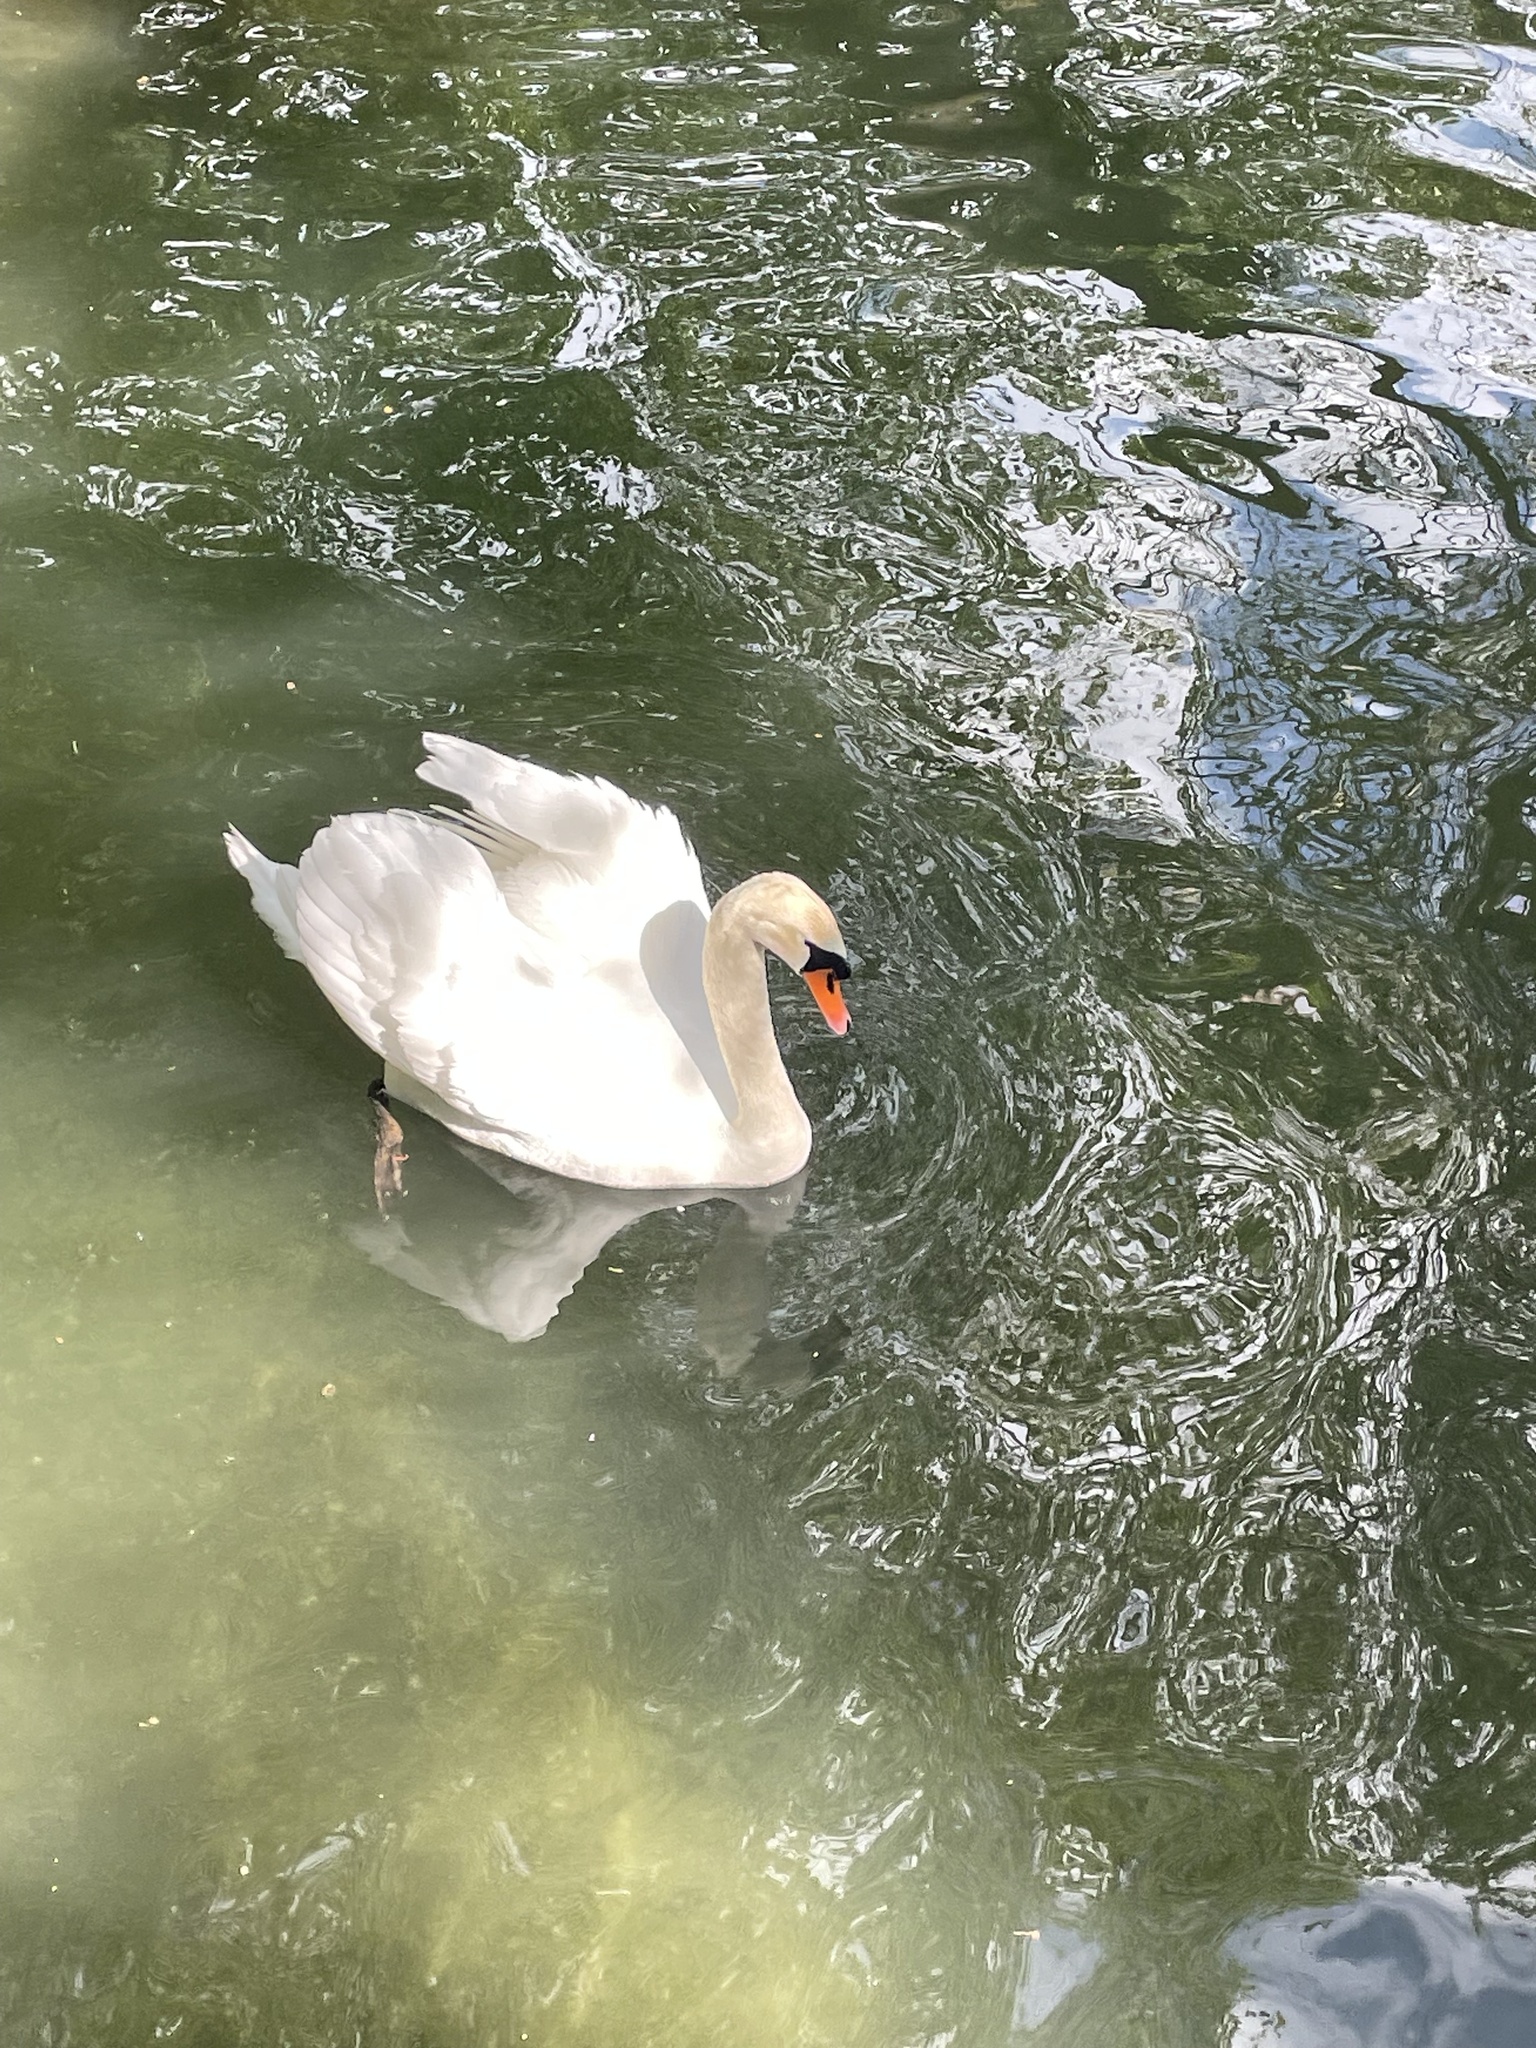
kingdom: Animalia
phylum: Chordata
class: Aves
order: Anseriformes
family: Anatidae
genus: Cygnus
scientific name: Cygnus olor
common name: Mute swan
